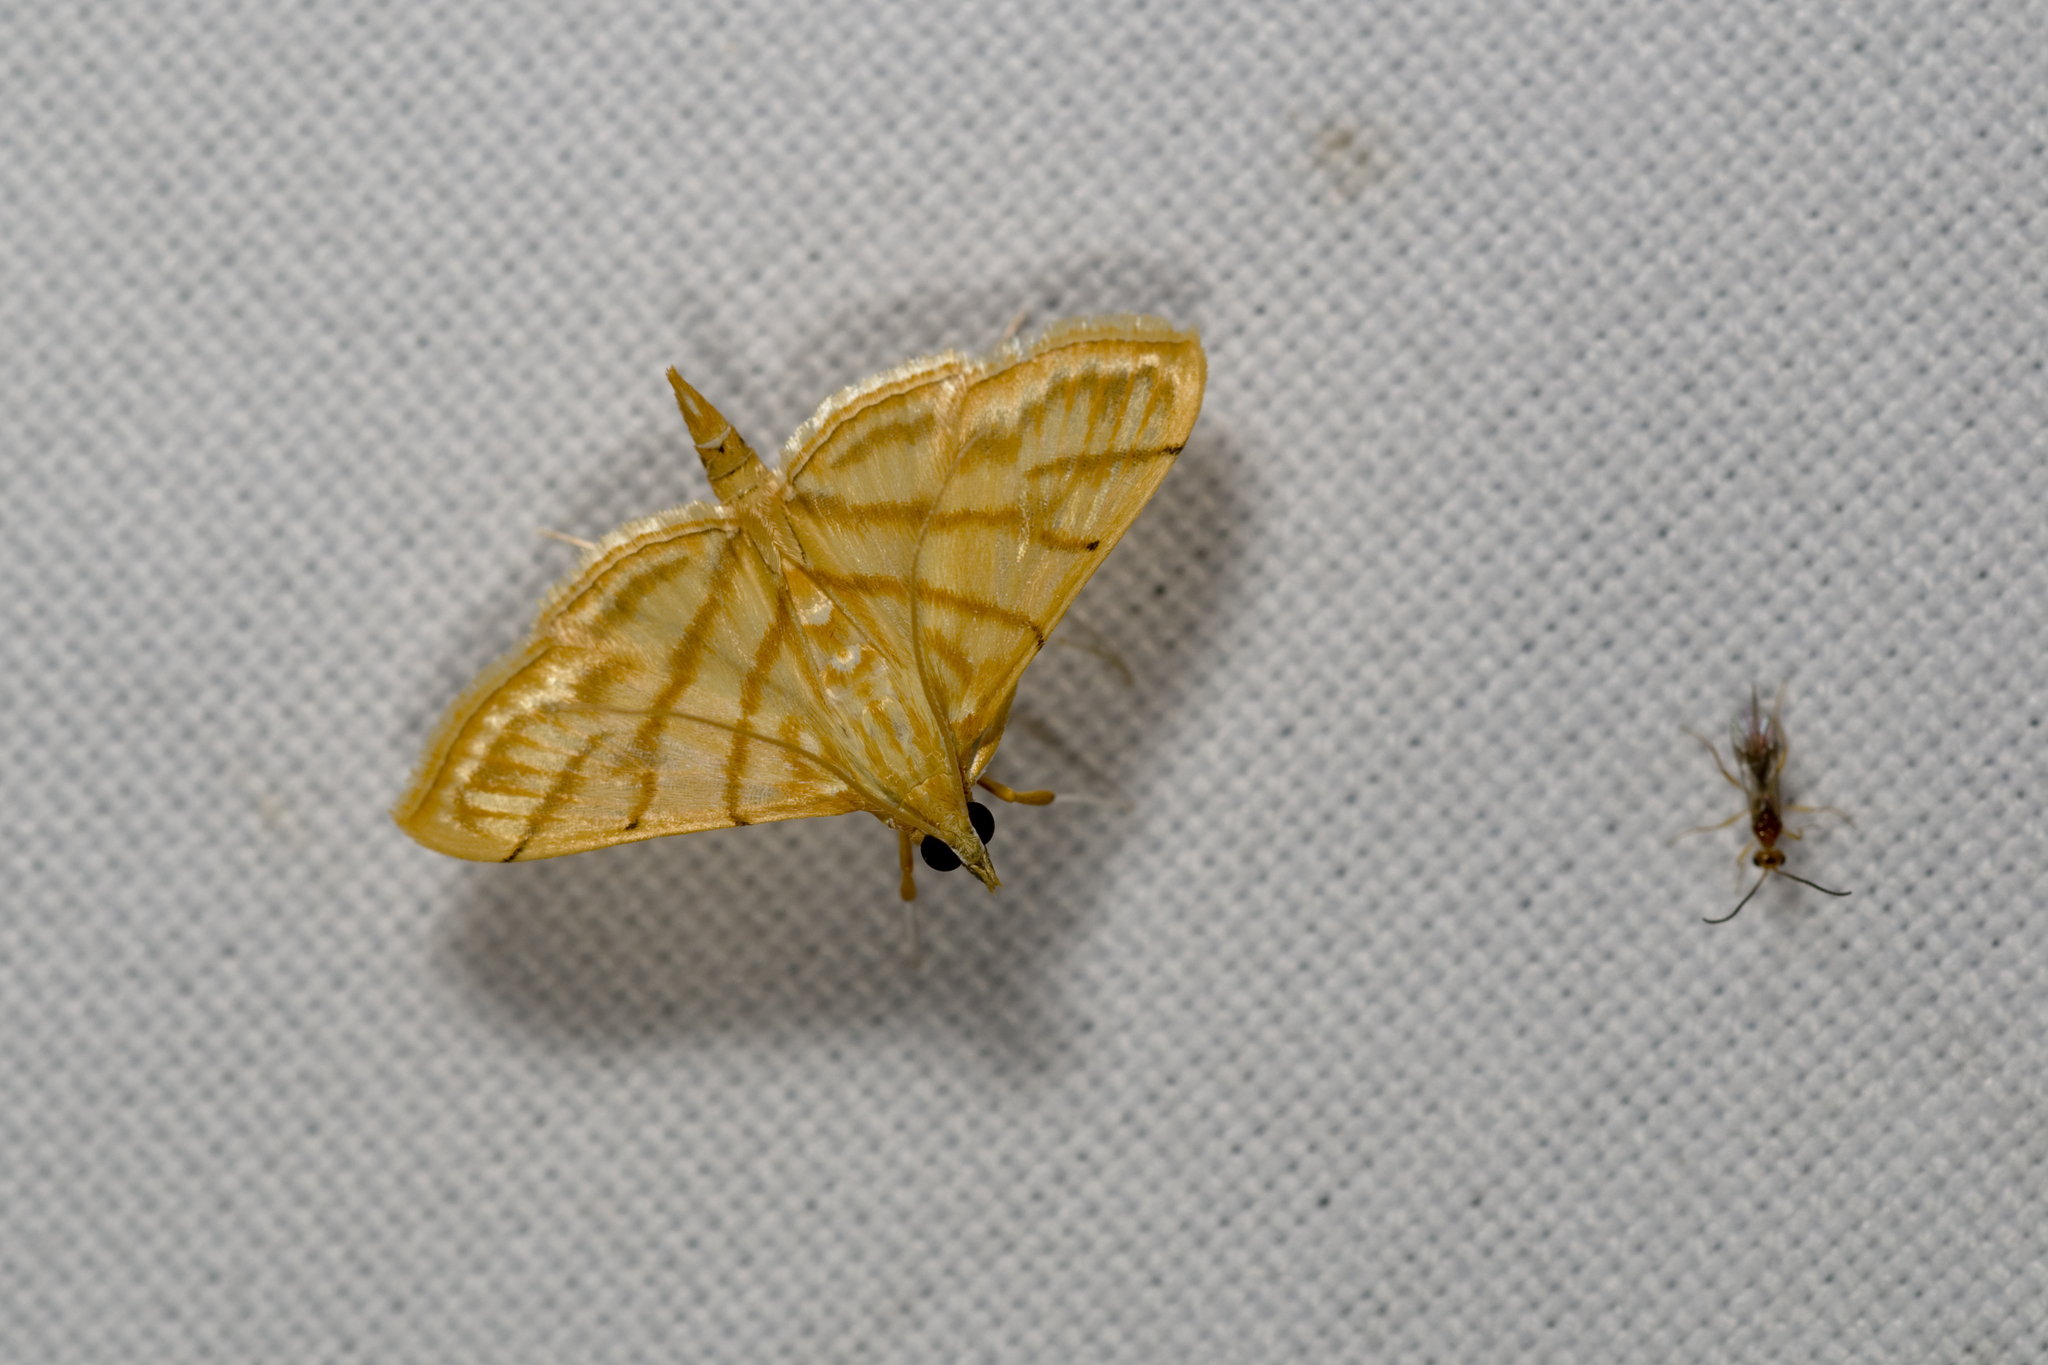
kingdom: Animalia
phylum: Arthropoda
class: Insecta
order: Lepidoptera
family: Crambidae
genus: Pagyda
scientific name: Pagyda botydalis
